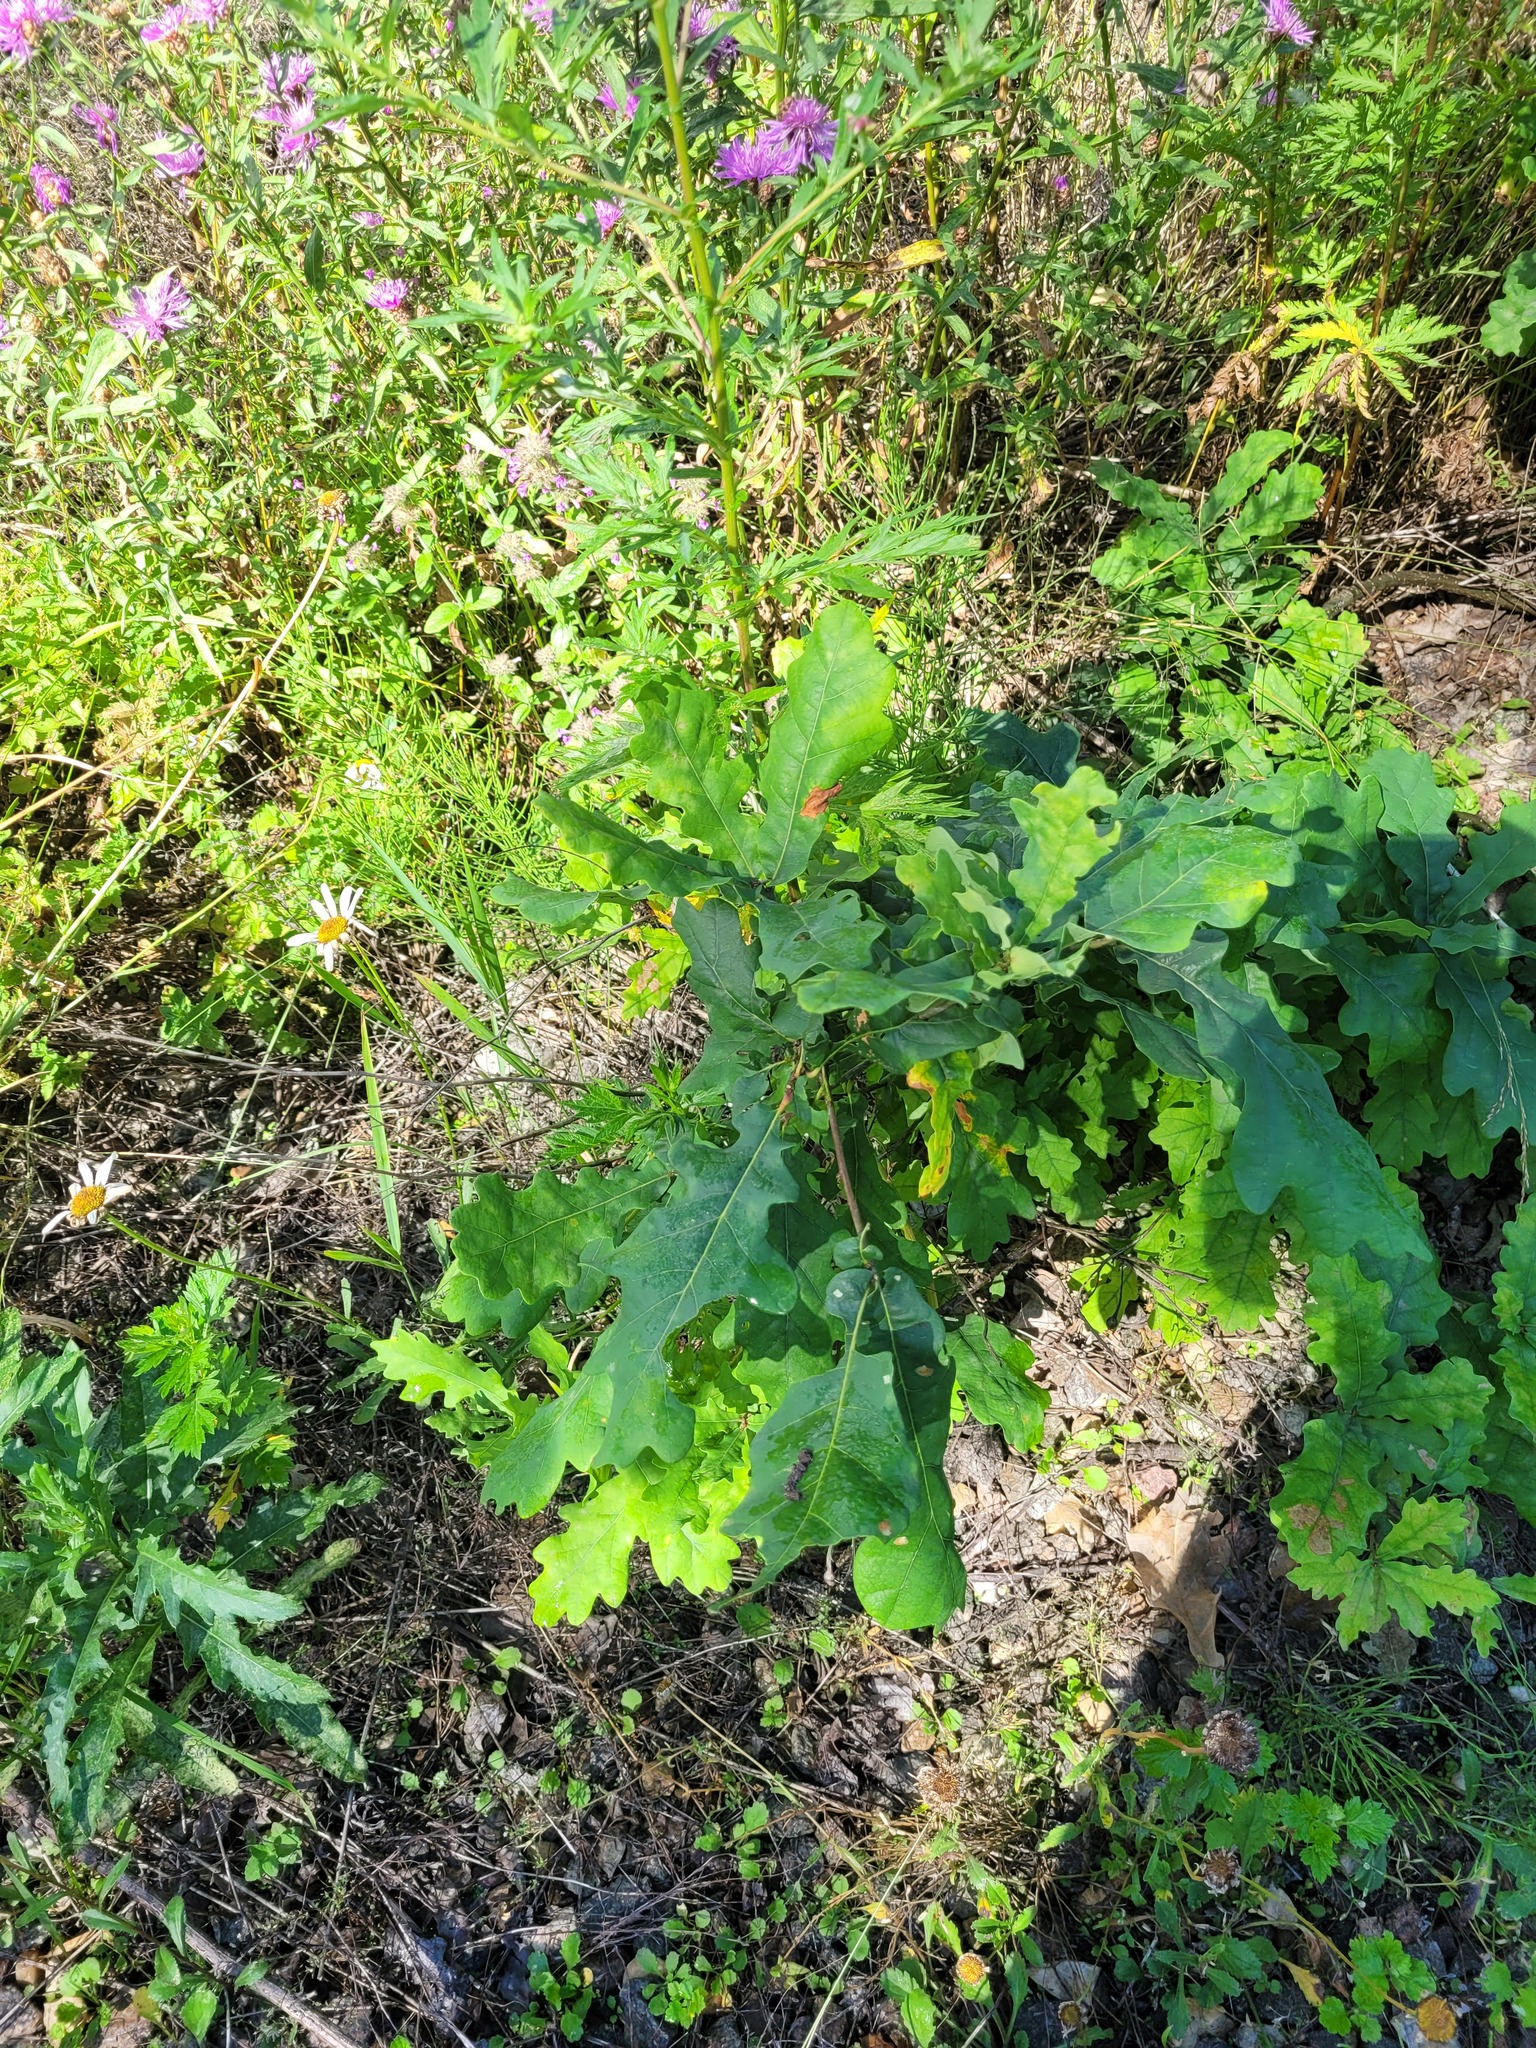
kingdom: Plantae
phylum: Tracheophyta
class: Magnoliopsida
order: Fagales
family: Fagaceae
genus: Quercus
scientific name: Quercus robur
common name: Pedunculate oak
